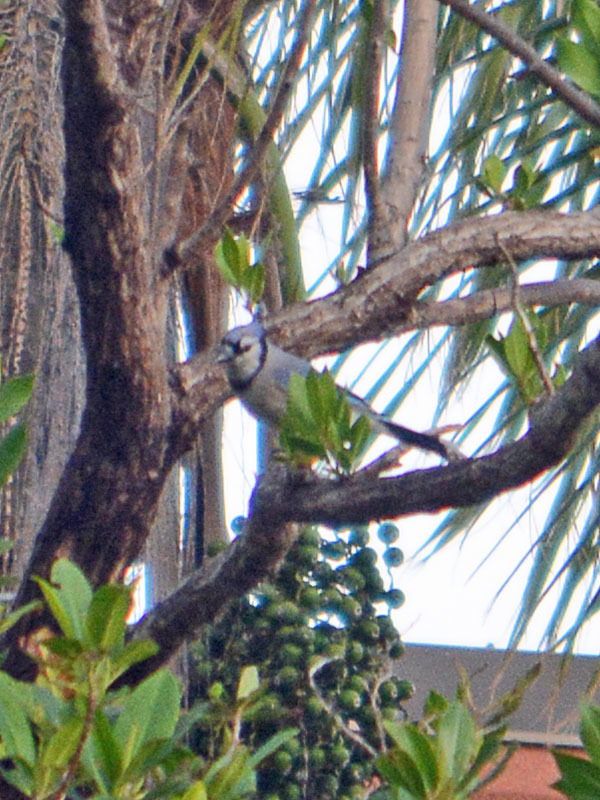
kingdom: Animalia
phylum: Chordata
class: Aves
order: Passeriformes
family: Corvidae
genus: Cyanocitta
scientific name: Cyanocitta cristata
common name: Blue jay
